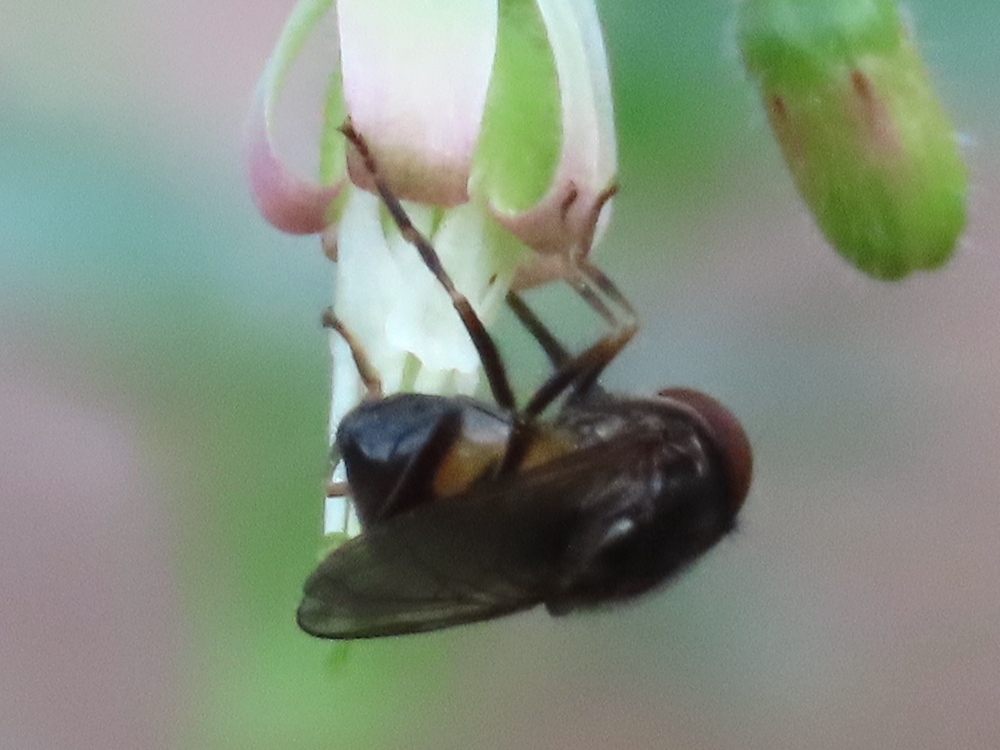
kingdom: Animalia
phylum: Arthropoda
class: Insecta
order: Diptera
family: Syrphidae
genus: Rhingia
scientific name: Rhingia nasica
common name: American snout fly
